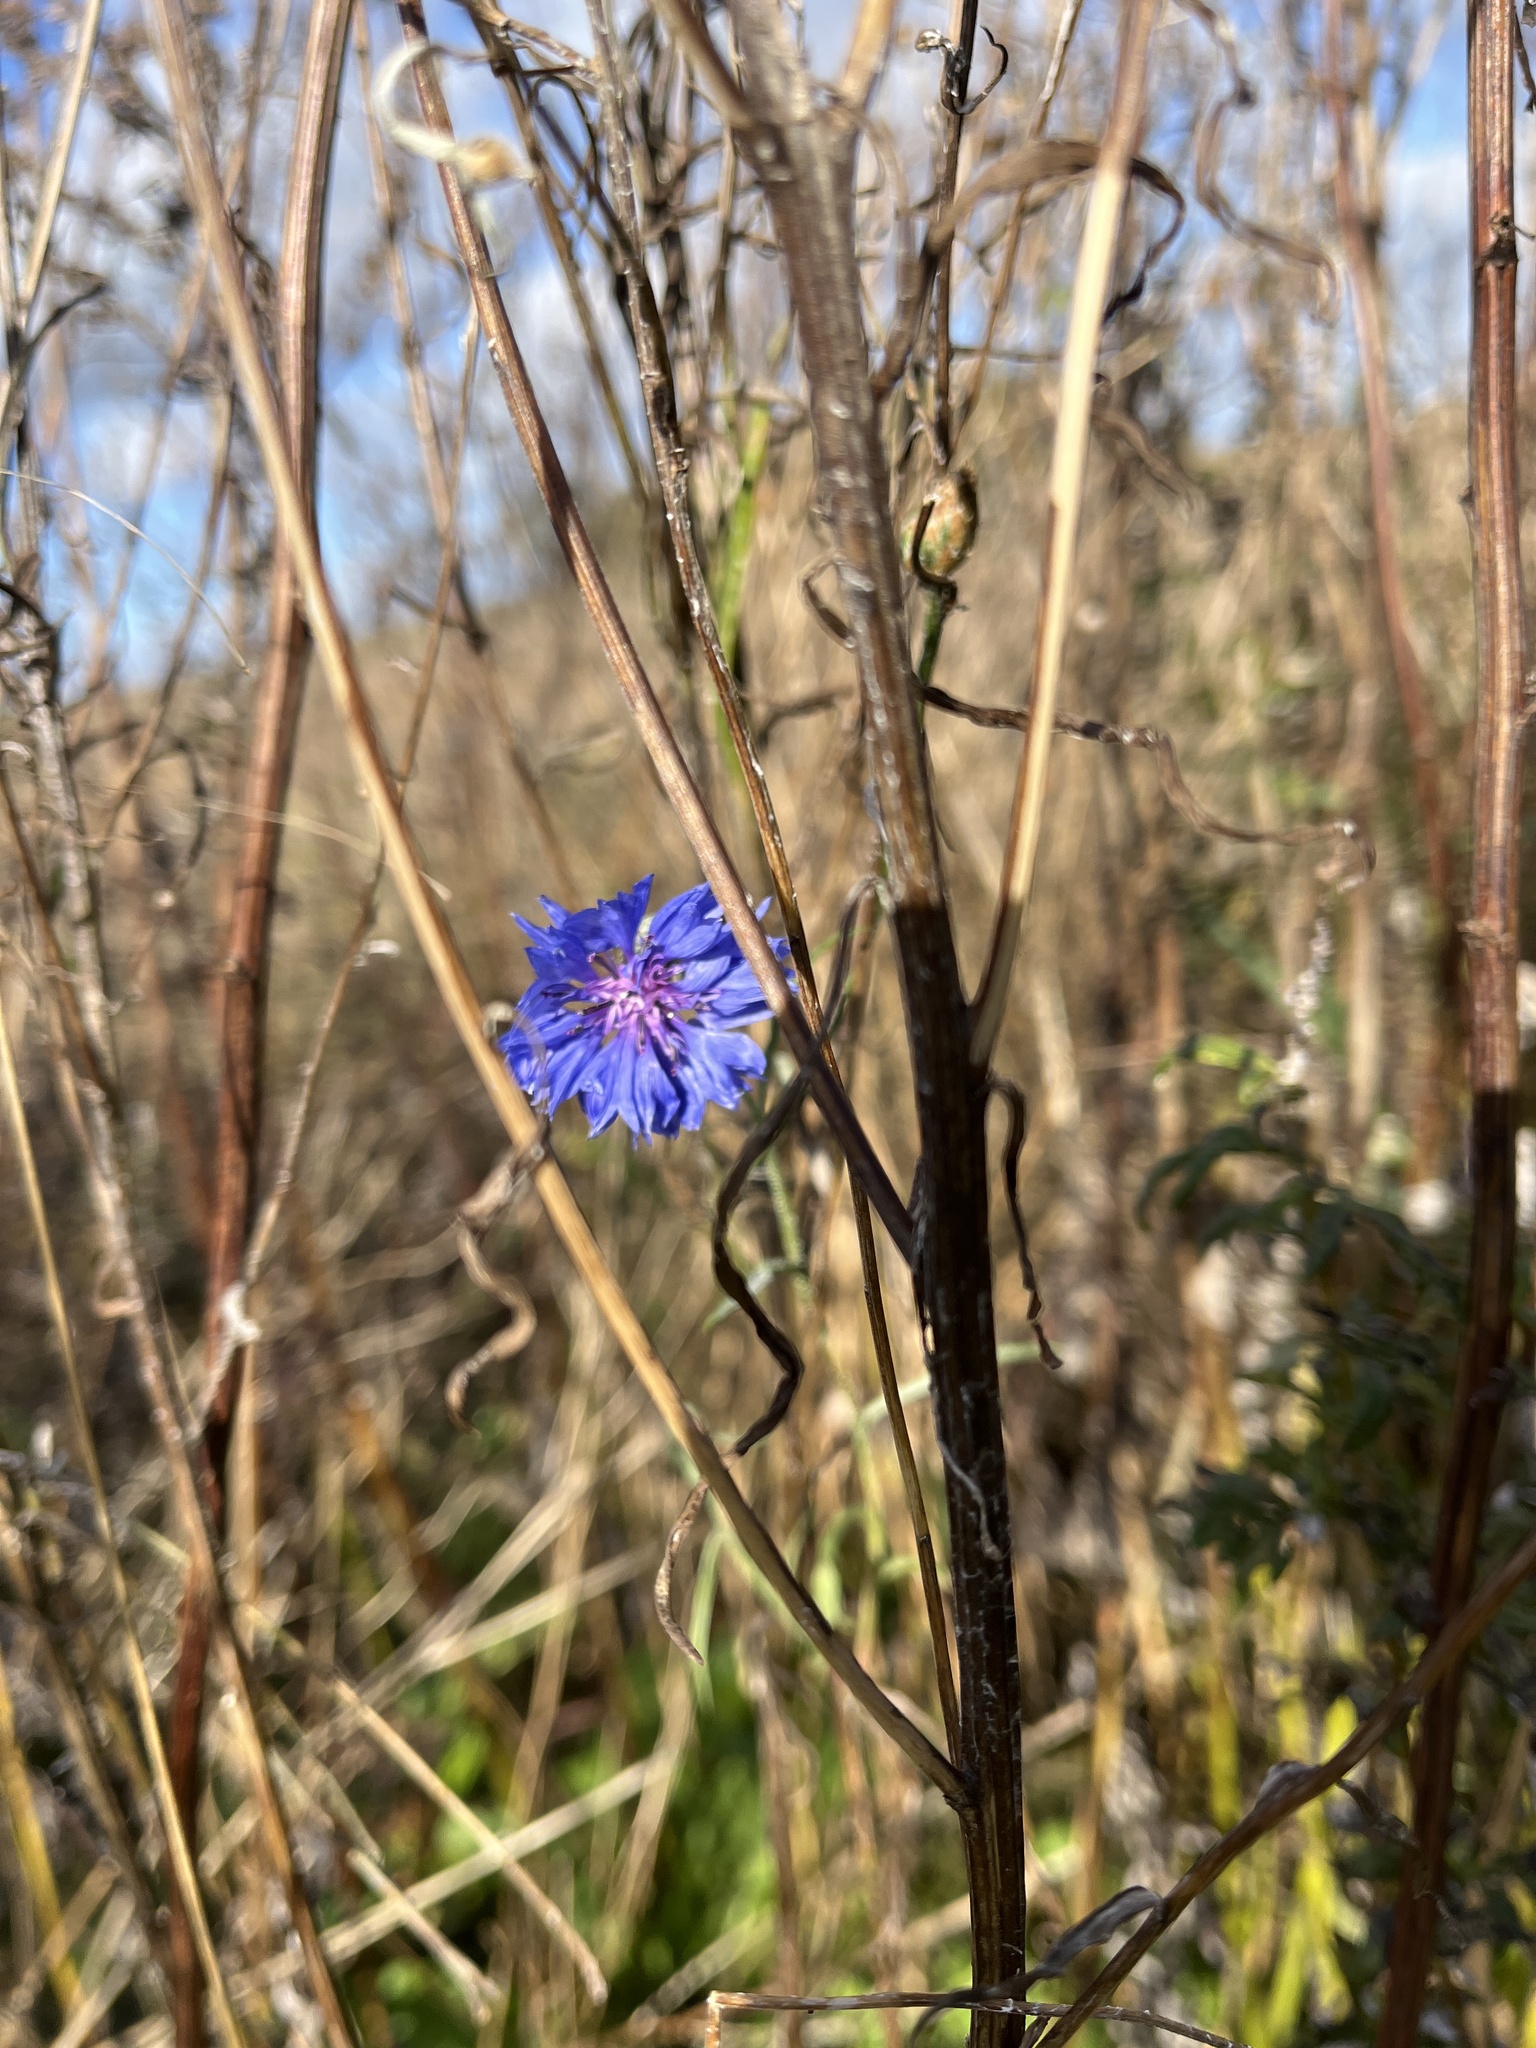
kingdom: Plantae
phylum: Tracheophyta
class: Magnoliopsida
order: Asterales
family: Asteraceae
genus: Centaurea
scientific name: Centaurea cyanus
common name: Cornflower
